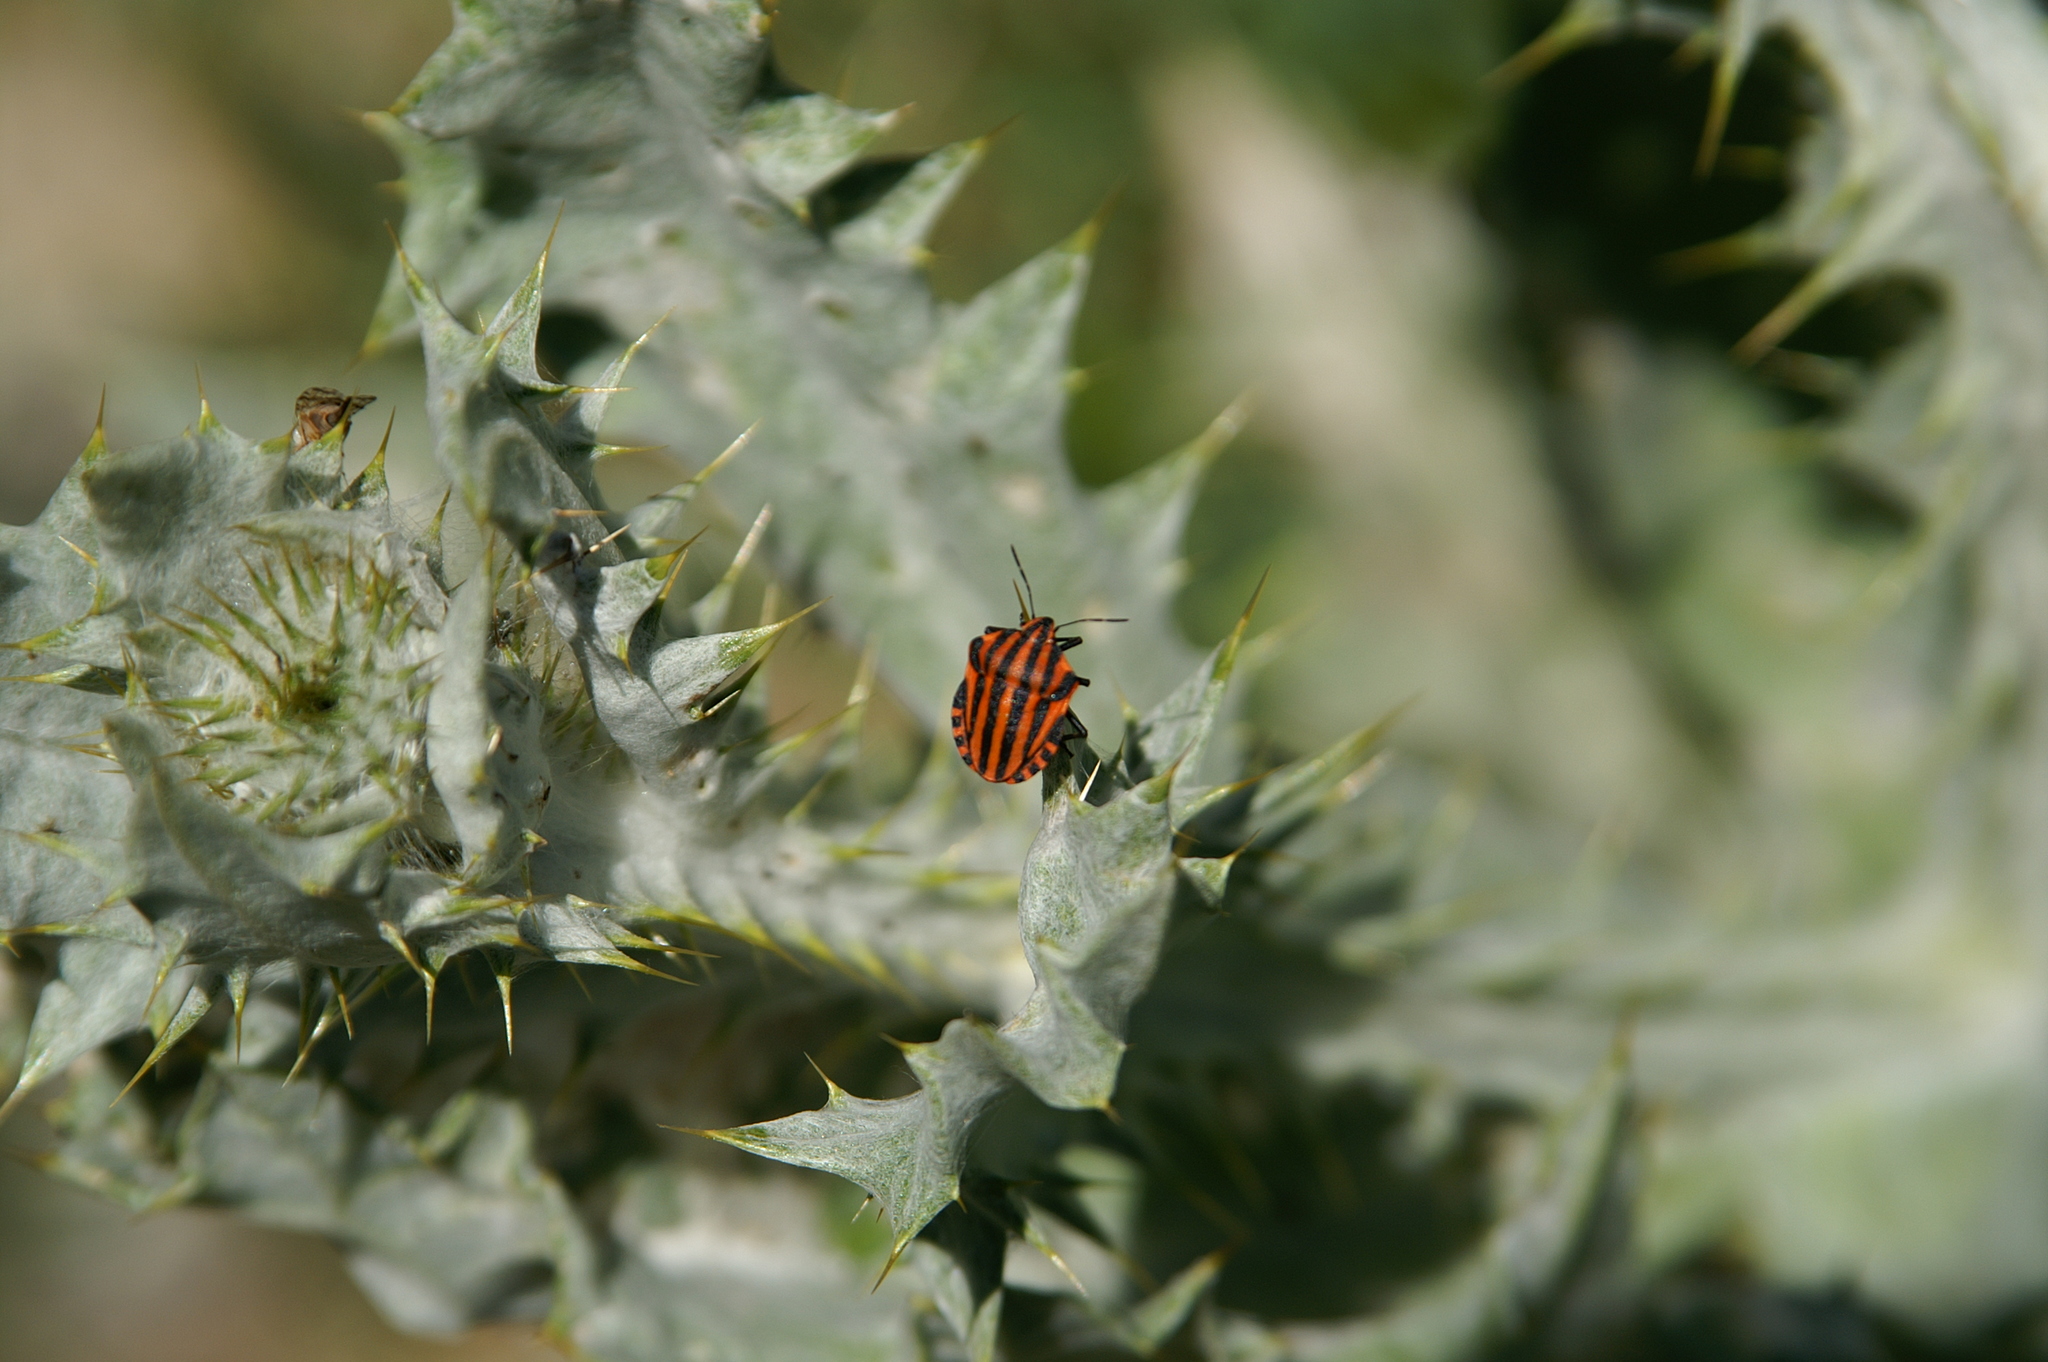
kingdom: Animalia
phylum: Arthropoda
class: Insecta
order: Hemiptera
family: Pentatomidae
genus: Graphosoma
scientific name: Graphosoma italicum
